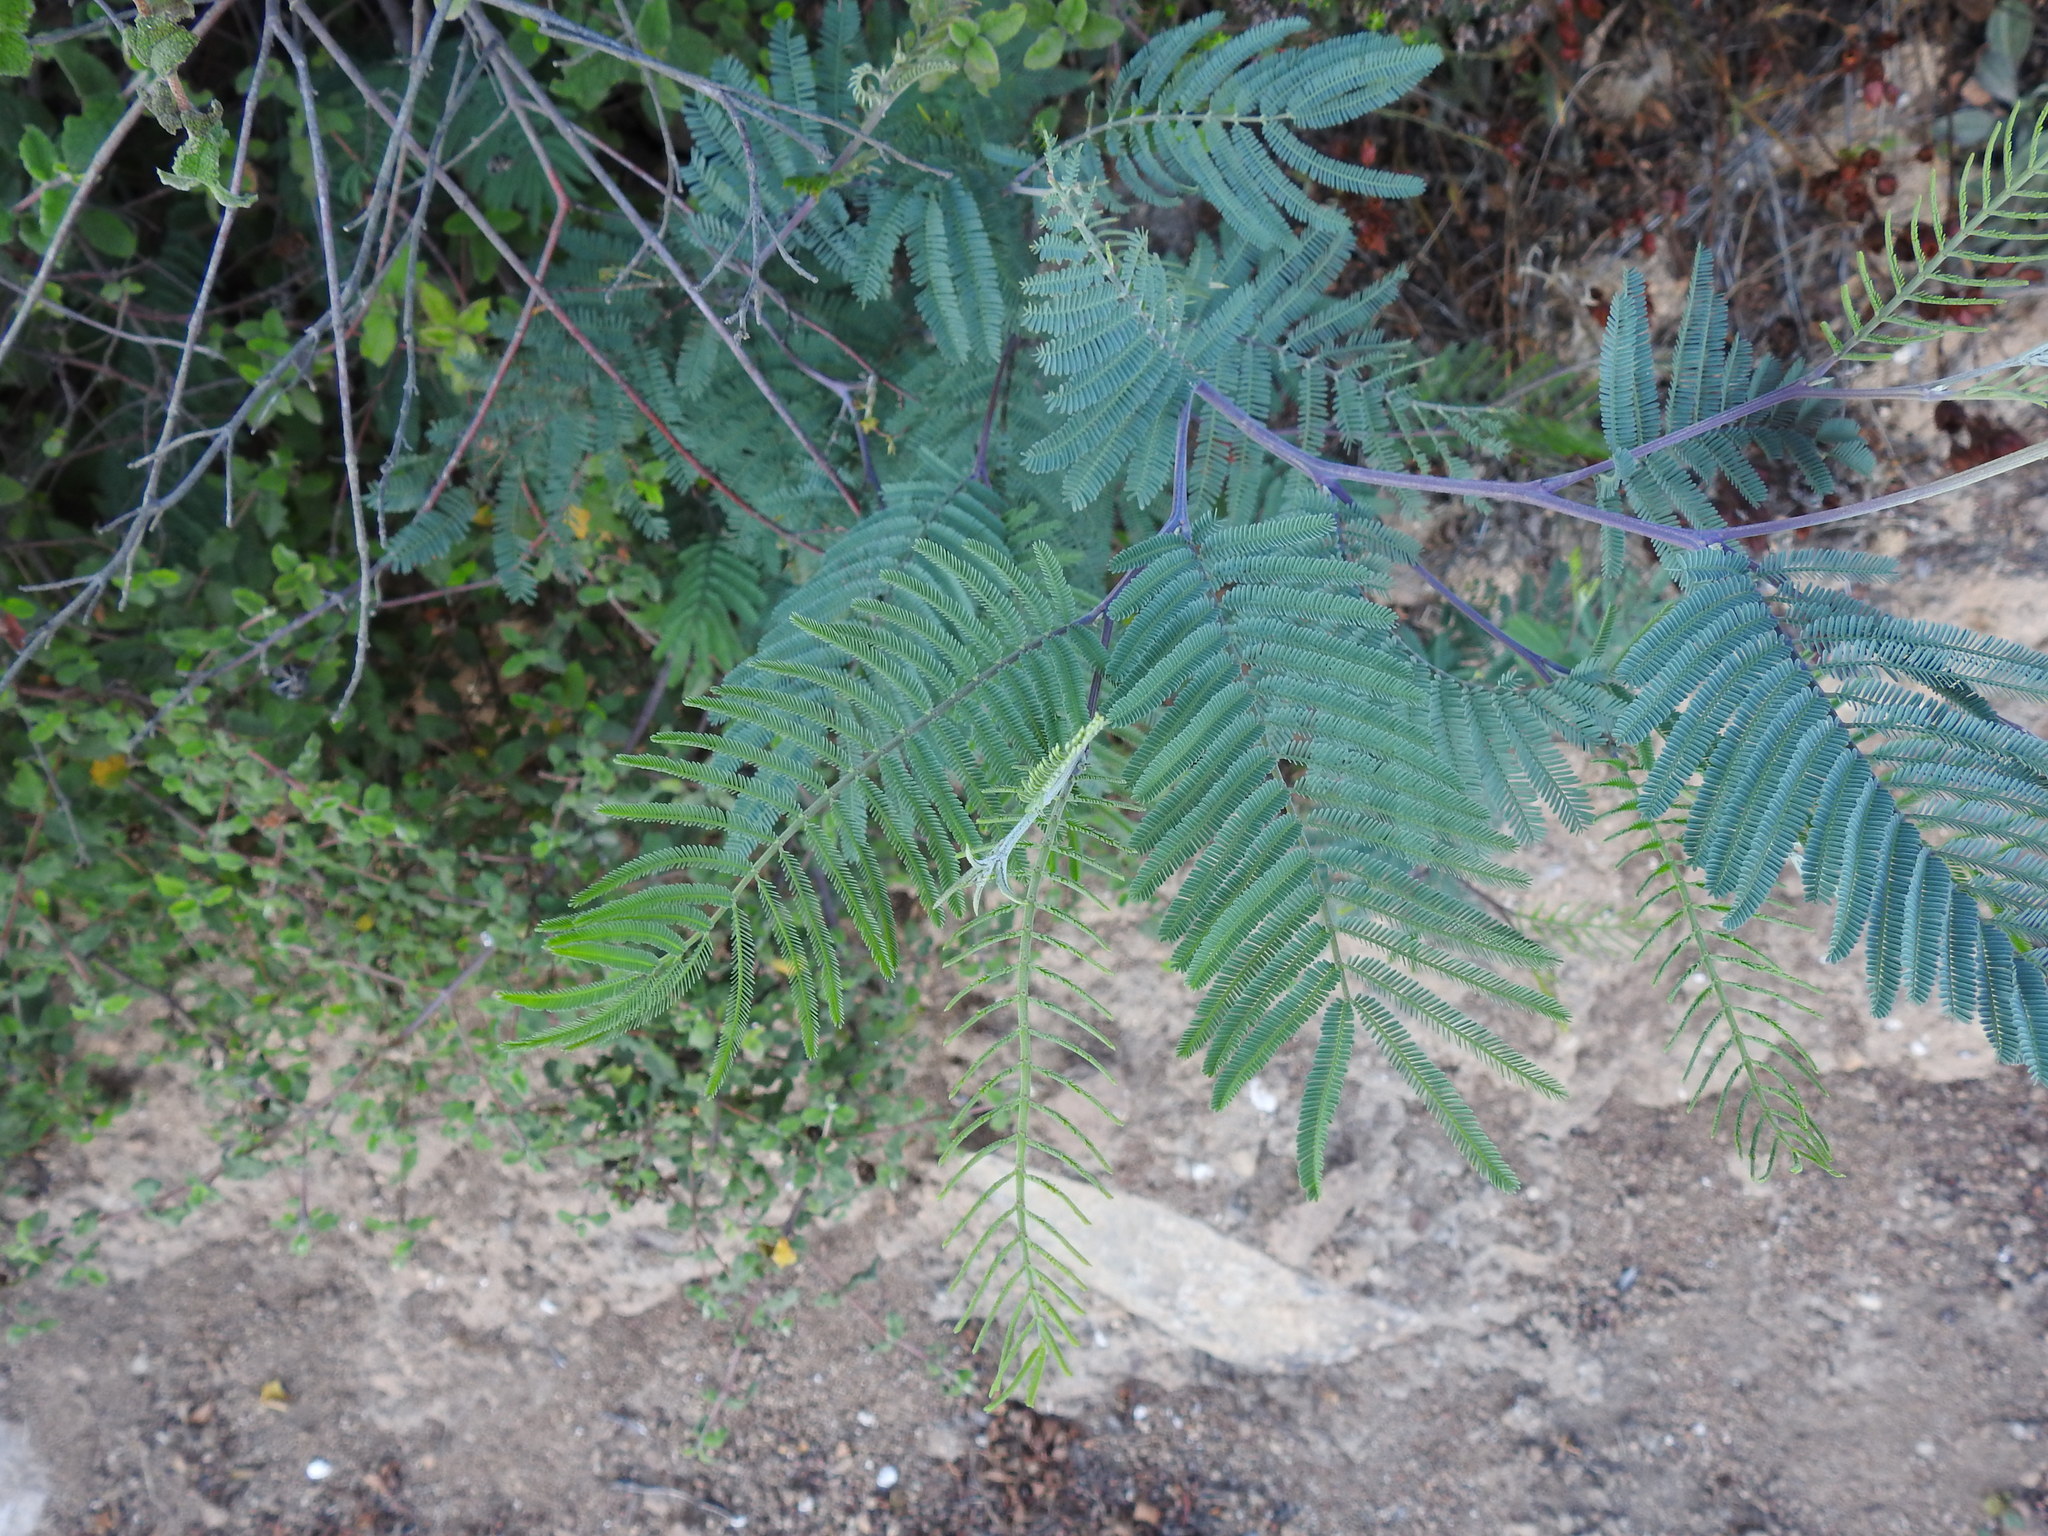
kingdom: Plantae
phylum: Tracheophyta
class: Magnoliopsida
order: Fabales
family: Fabaceae
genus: Acacia
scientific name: Acacia dealbata
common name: Silver wattle
